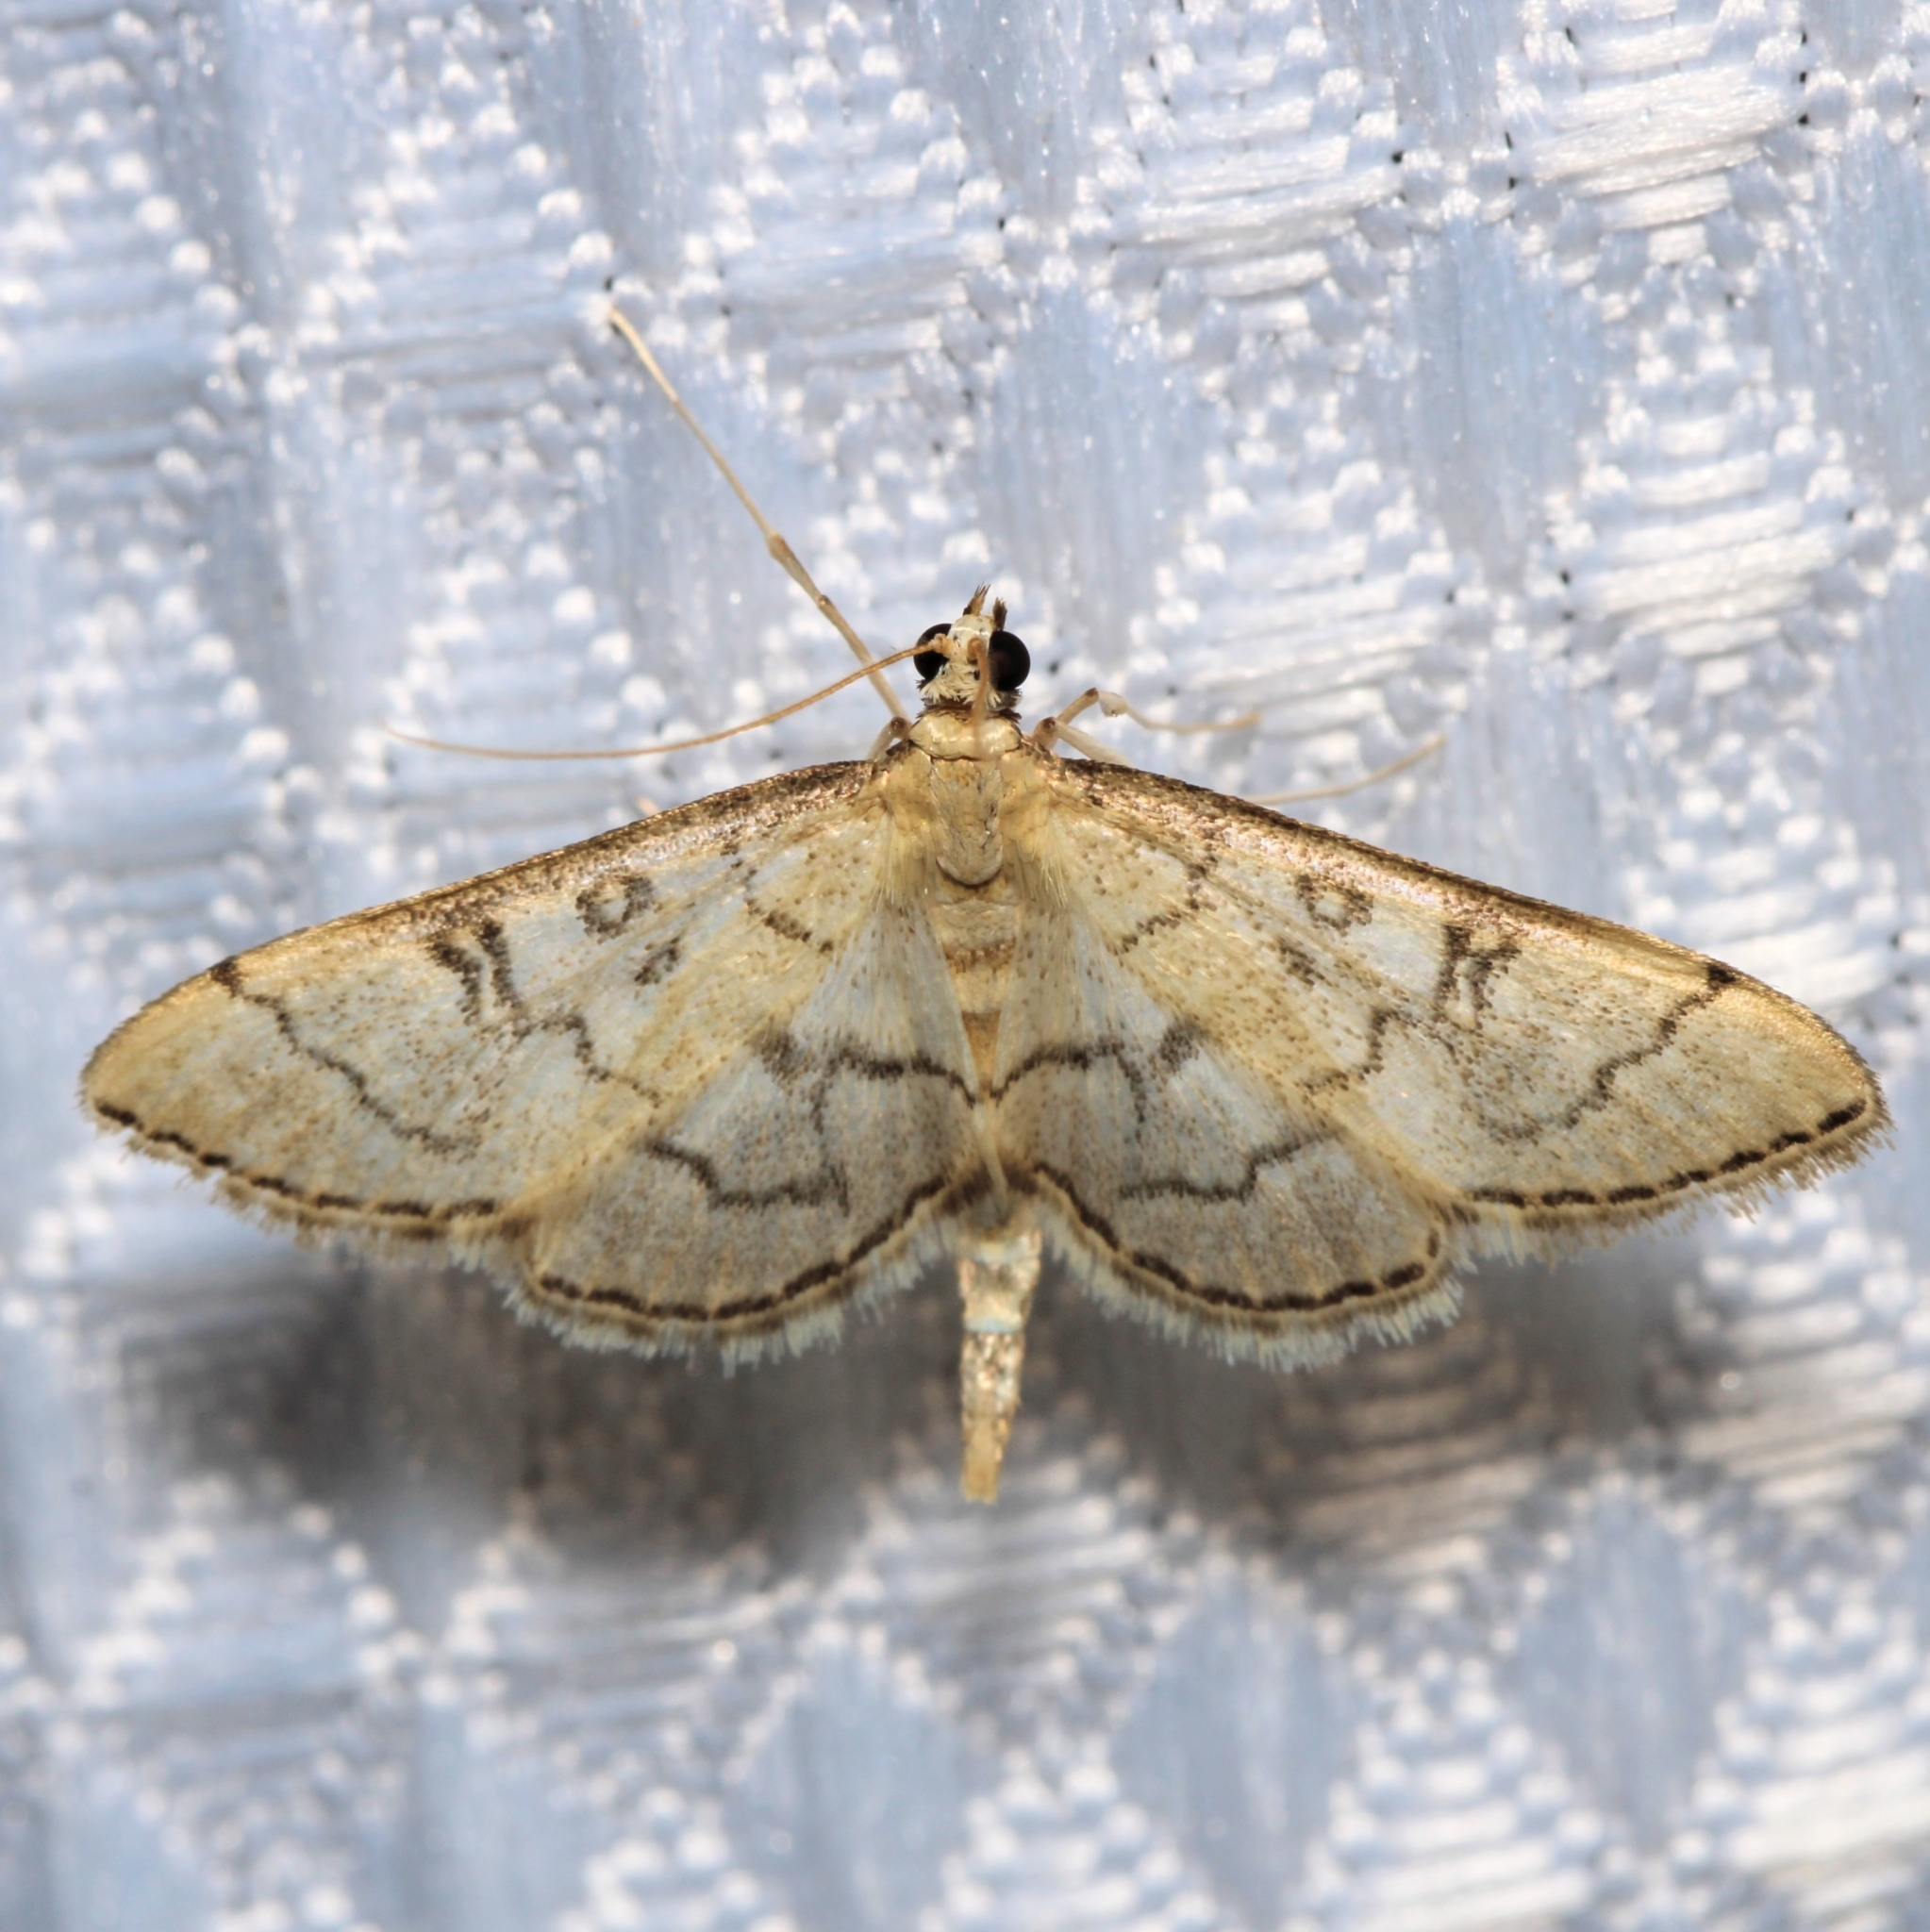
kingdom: Animalia
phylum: Arthropoda
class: Insecta
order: Lepidoptera
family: Crambidae
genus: Lamprosema
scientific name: Lamprosema Blepharomastix ranalis
